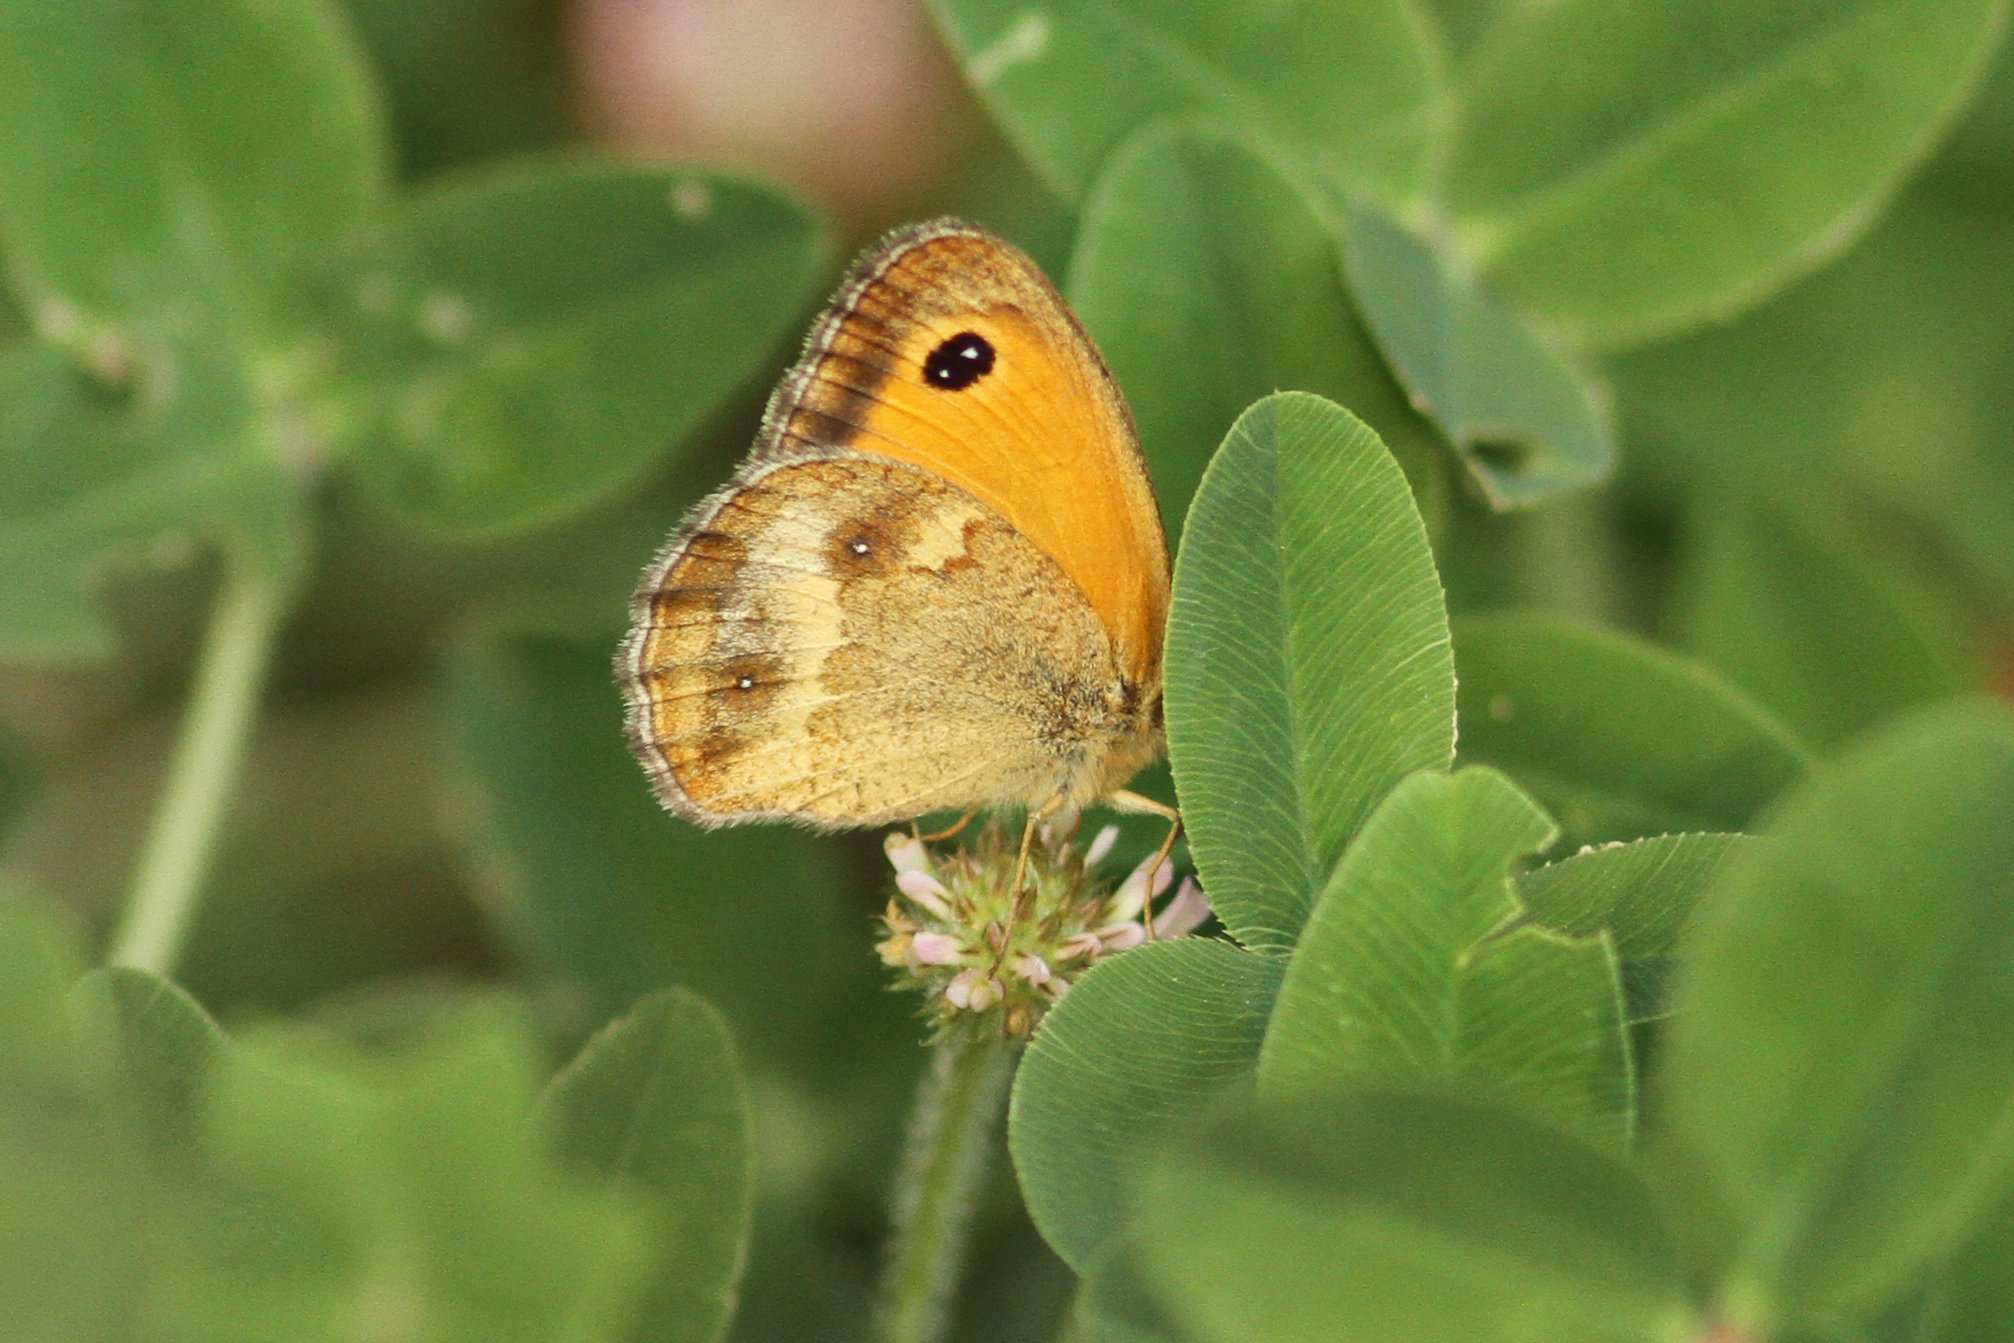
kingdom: Animalia
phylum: Arthropoda
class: Insecta
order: Lepidoptera
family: Nymphalidae
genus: Pyronia
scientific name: Pyronia tithonus
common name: Gatekeeper
